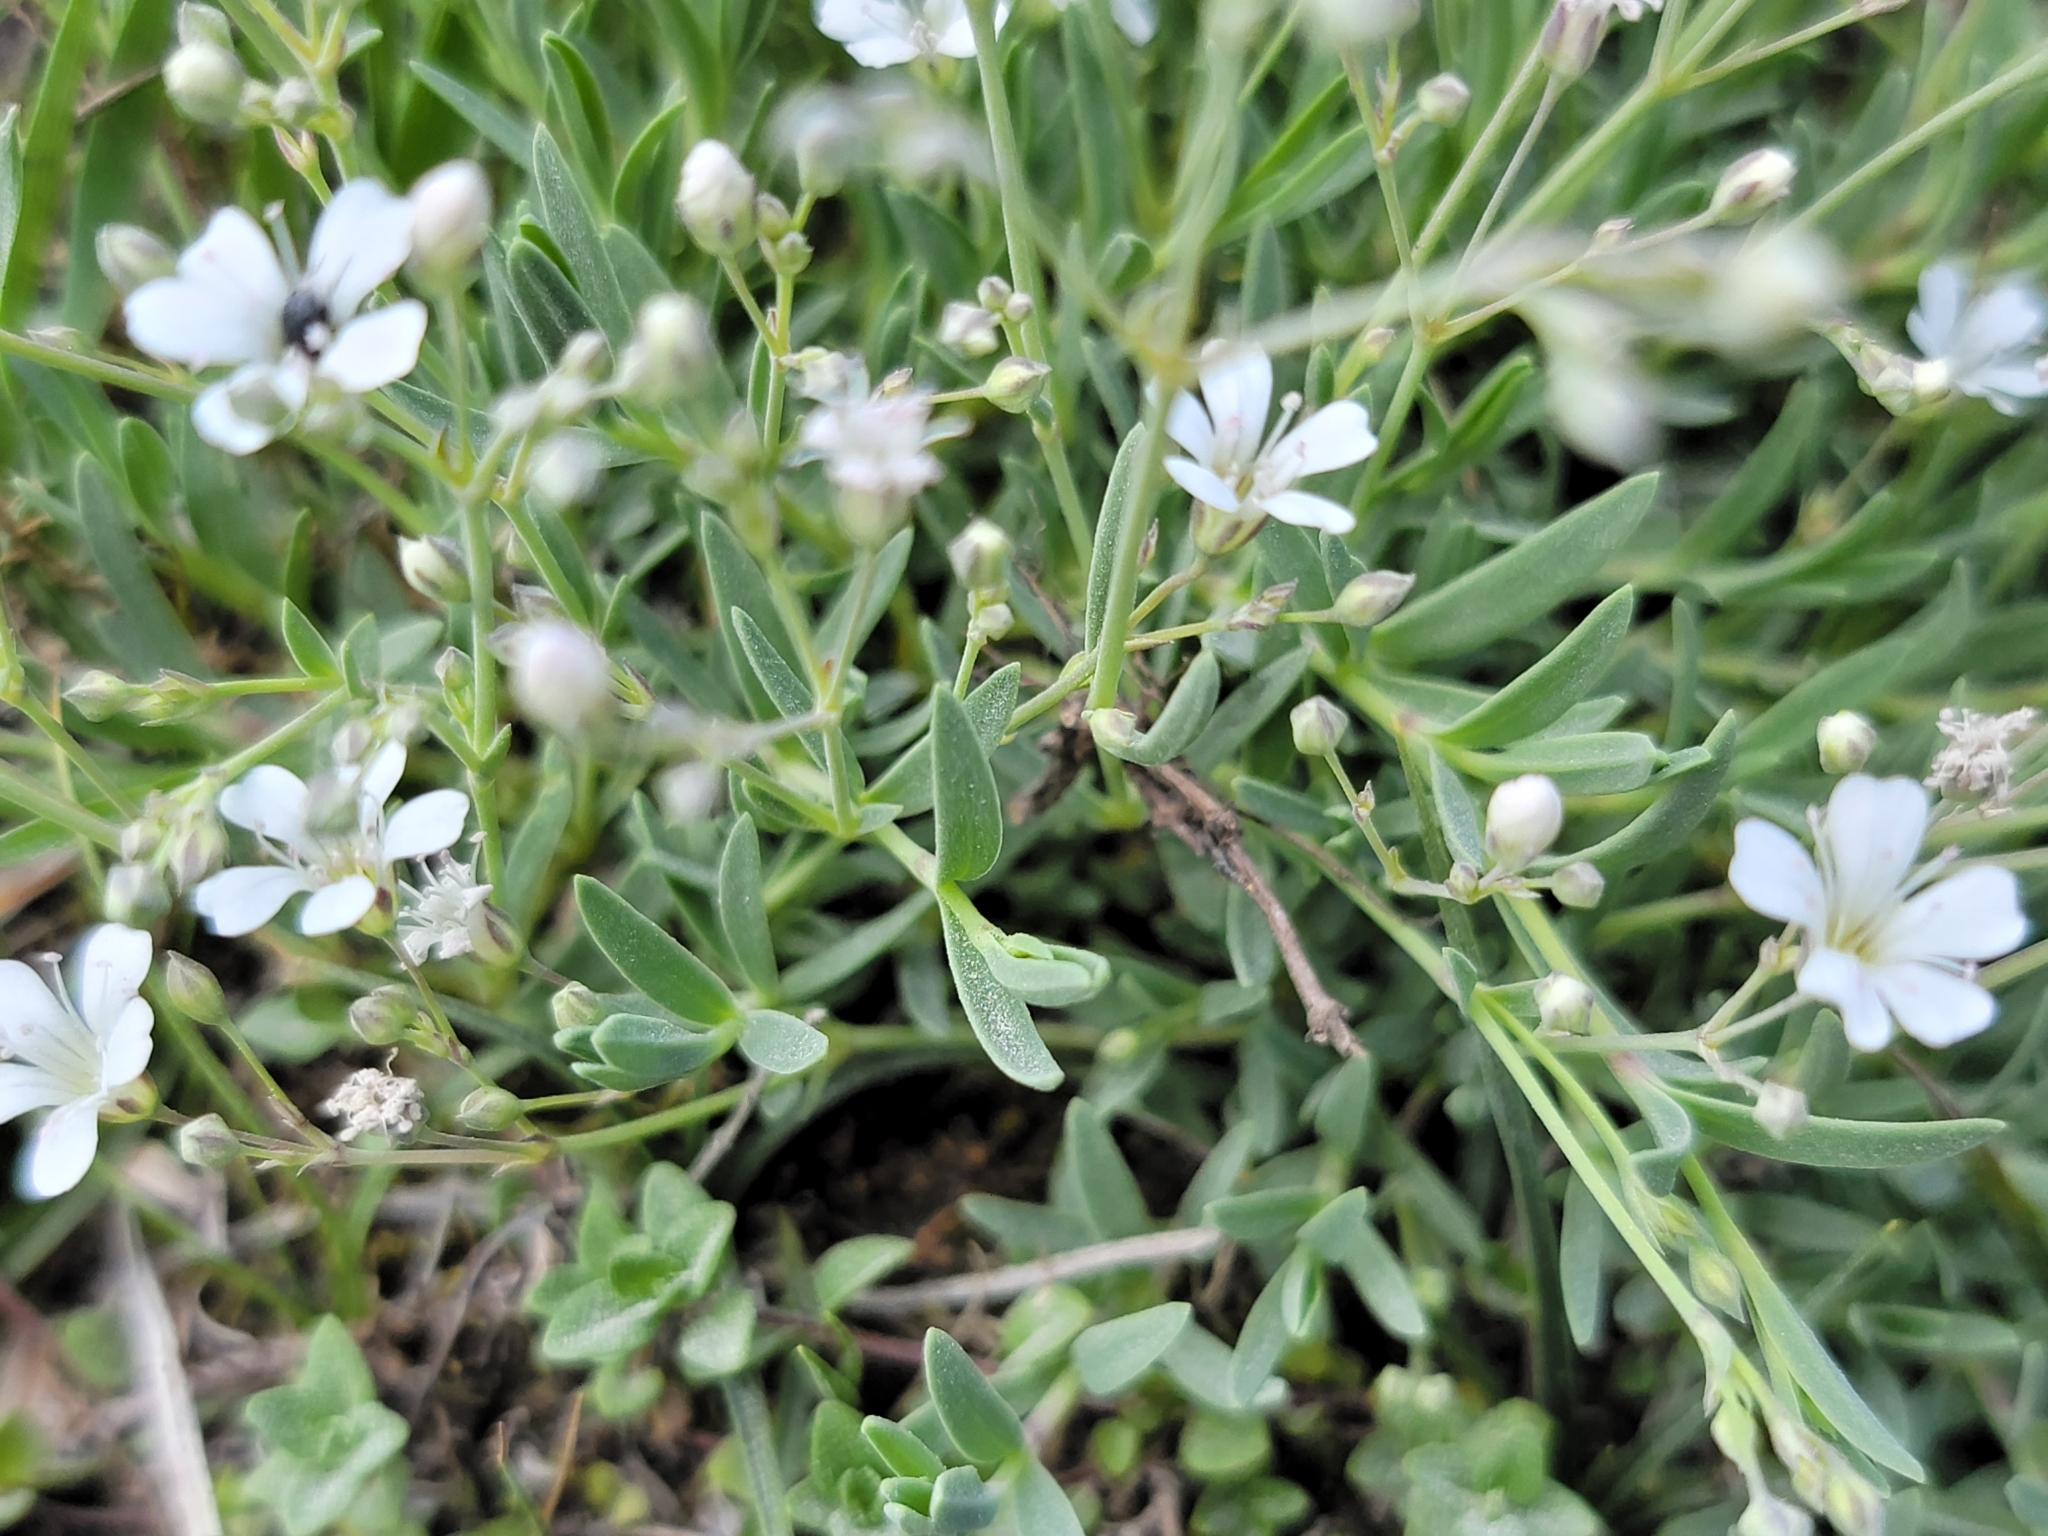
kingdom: Plantae
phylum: Tracheophyta
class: Magnoliopsida
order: Caryophyllales
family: Caryophyllaceae
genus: Gypsophila
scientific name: Gypsophila repens
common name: Creeping baby's-breath
